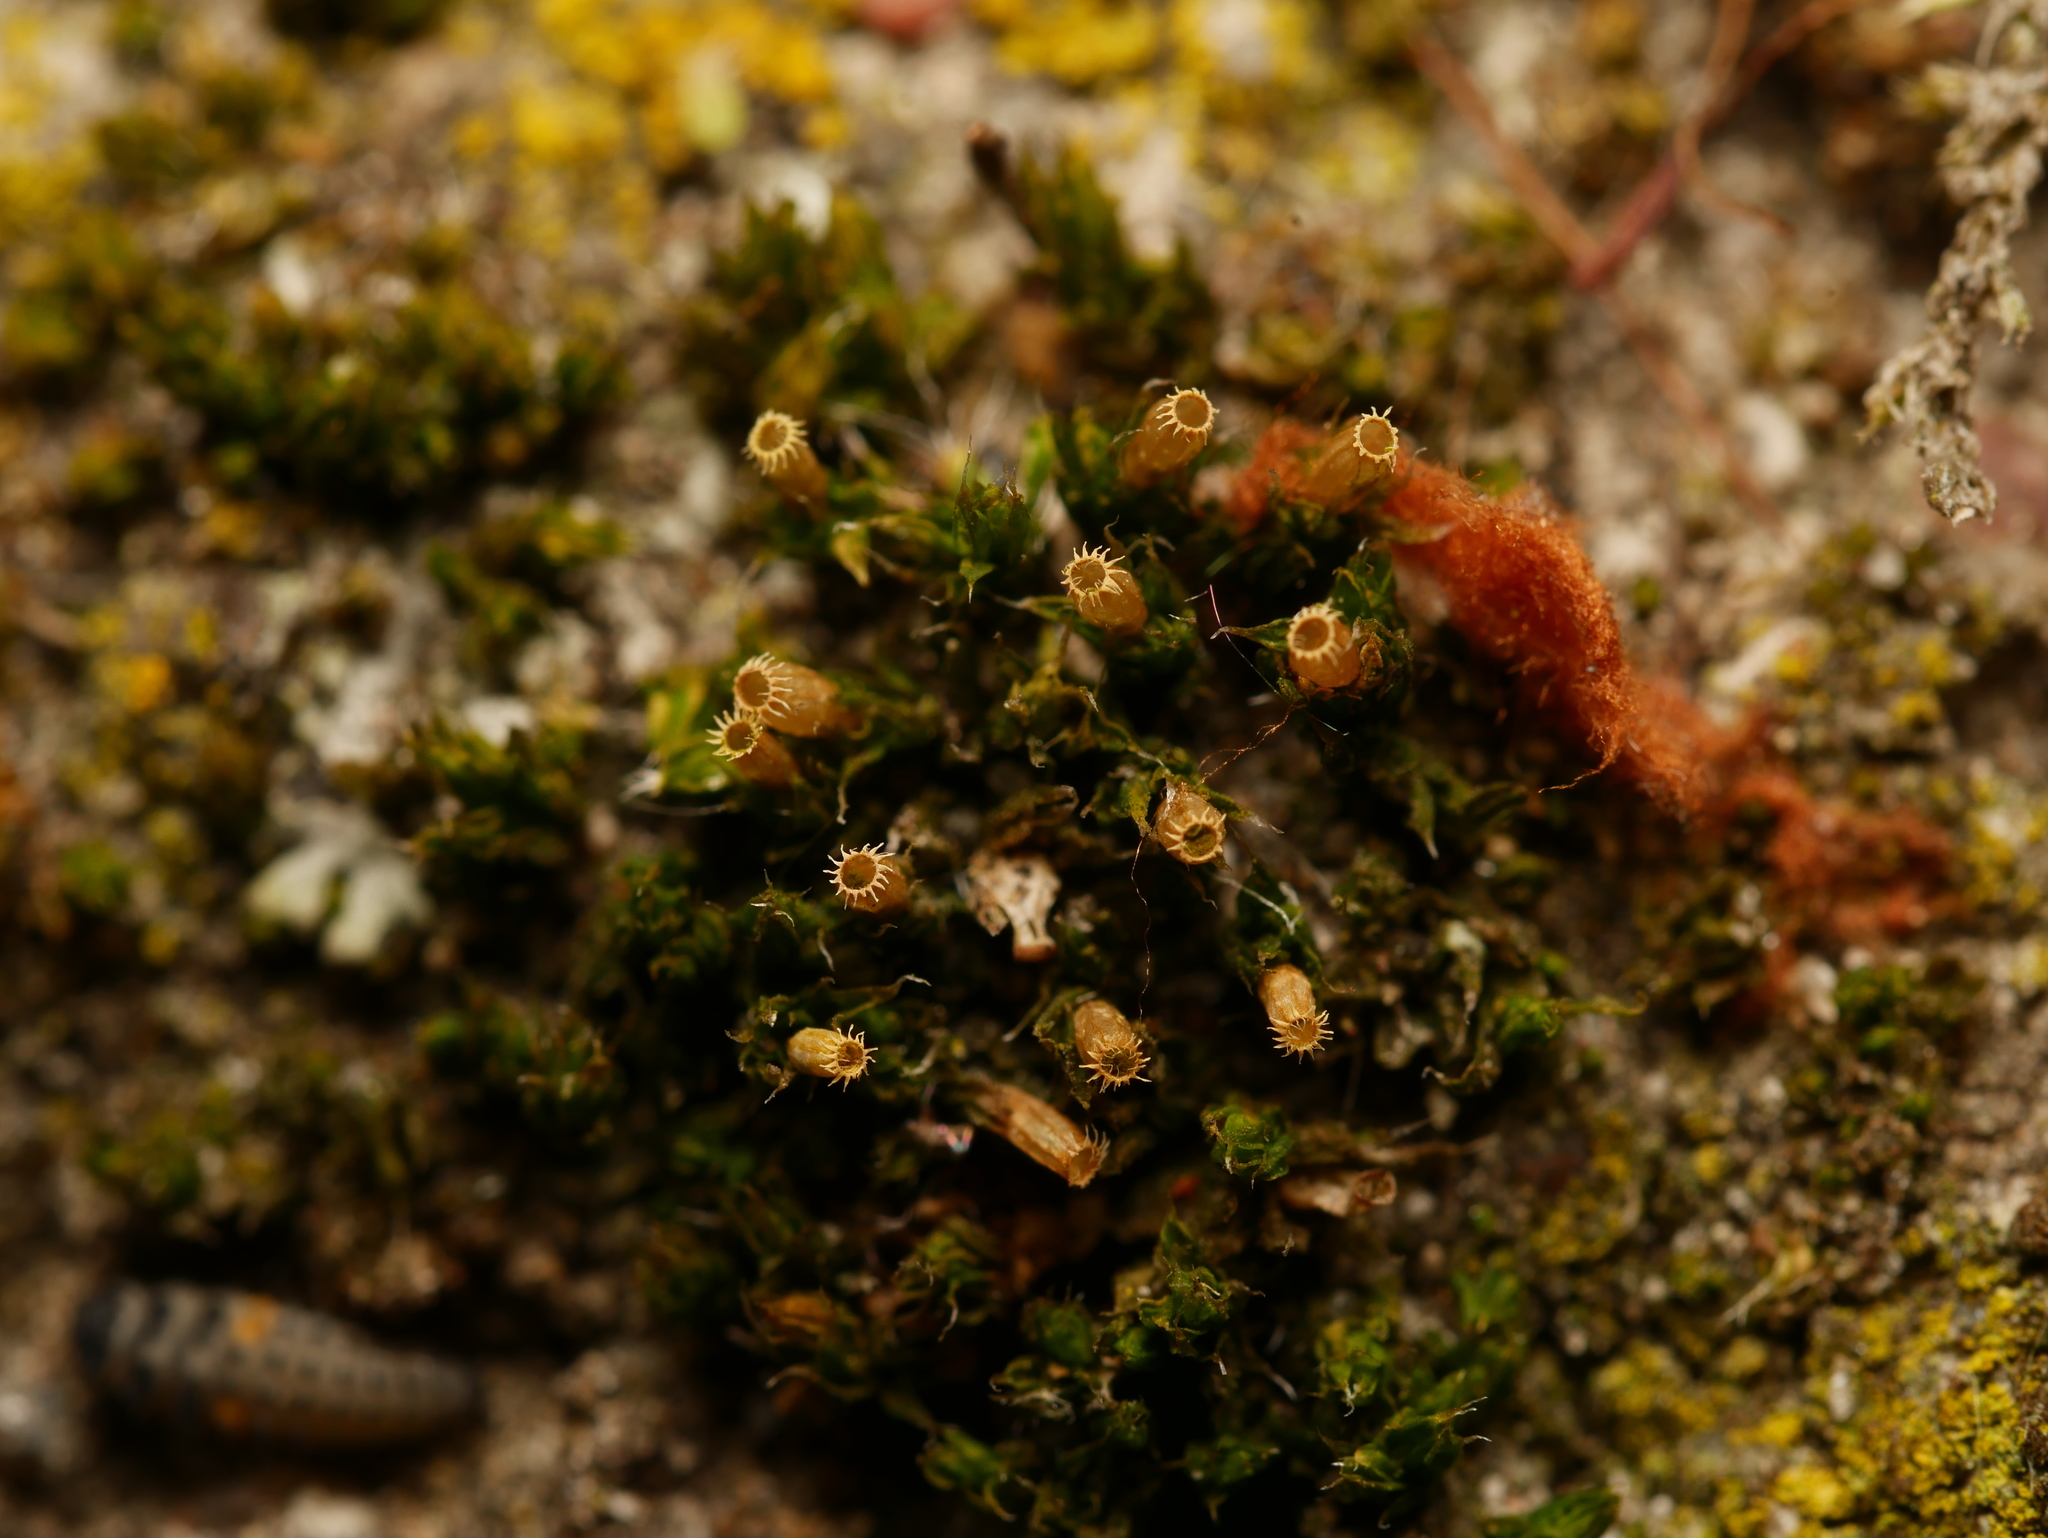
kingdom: Plantae
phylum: Bryophyta
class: Bryopsida
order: Orthotrichales
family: Orthotrichaceae
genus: Orthotrichum
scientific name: Orthotrichum diaphanum
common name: White-tipped bristle-moss
